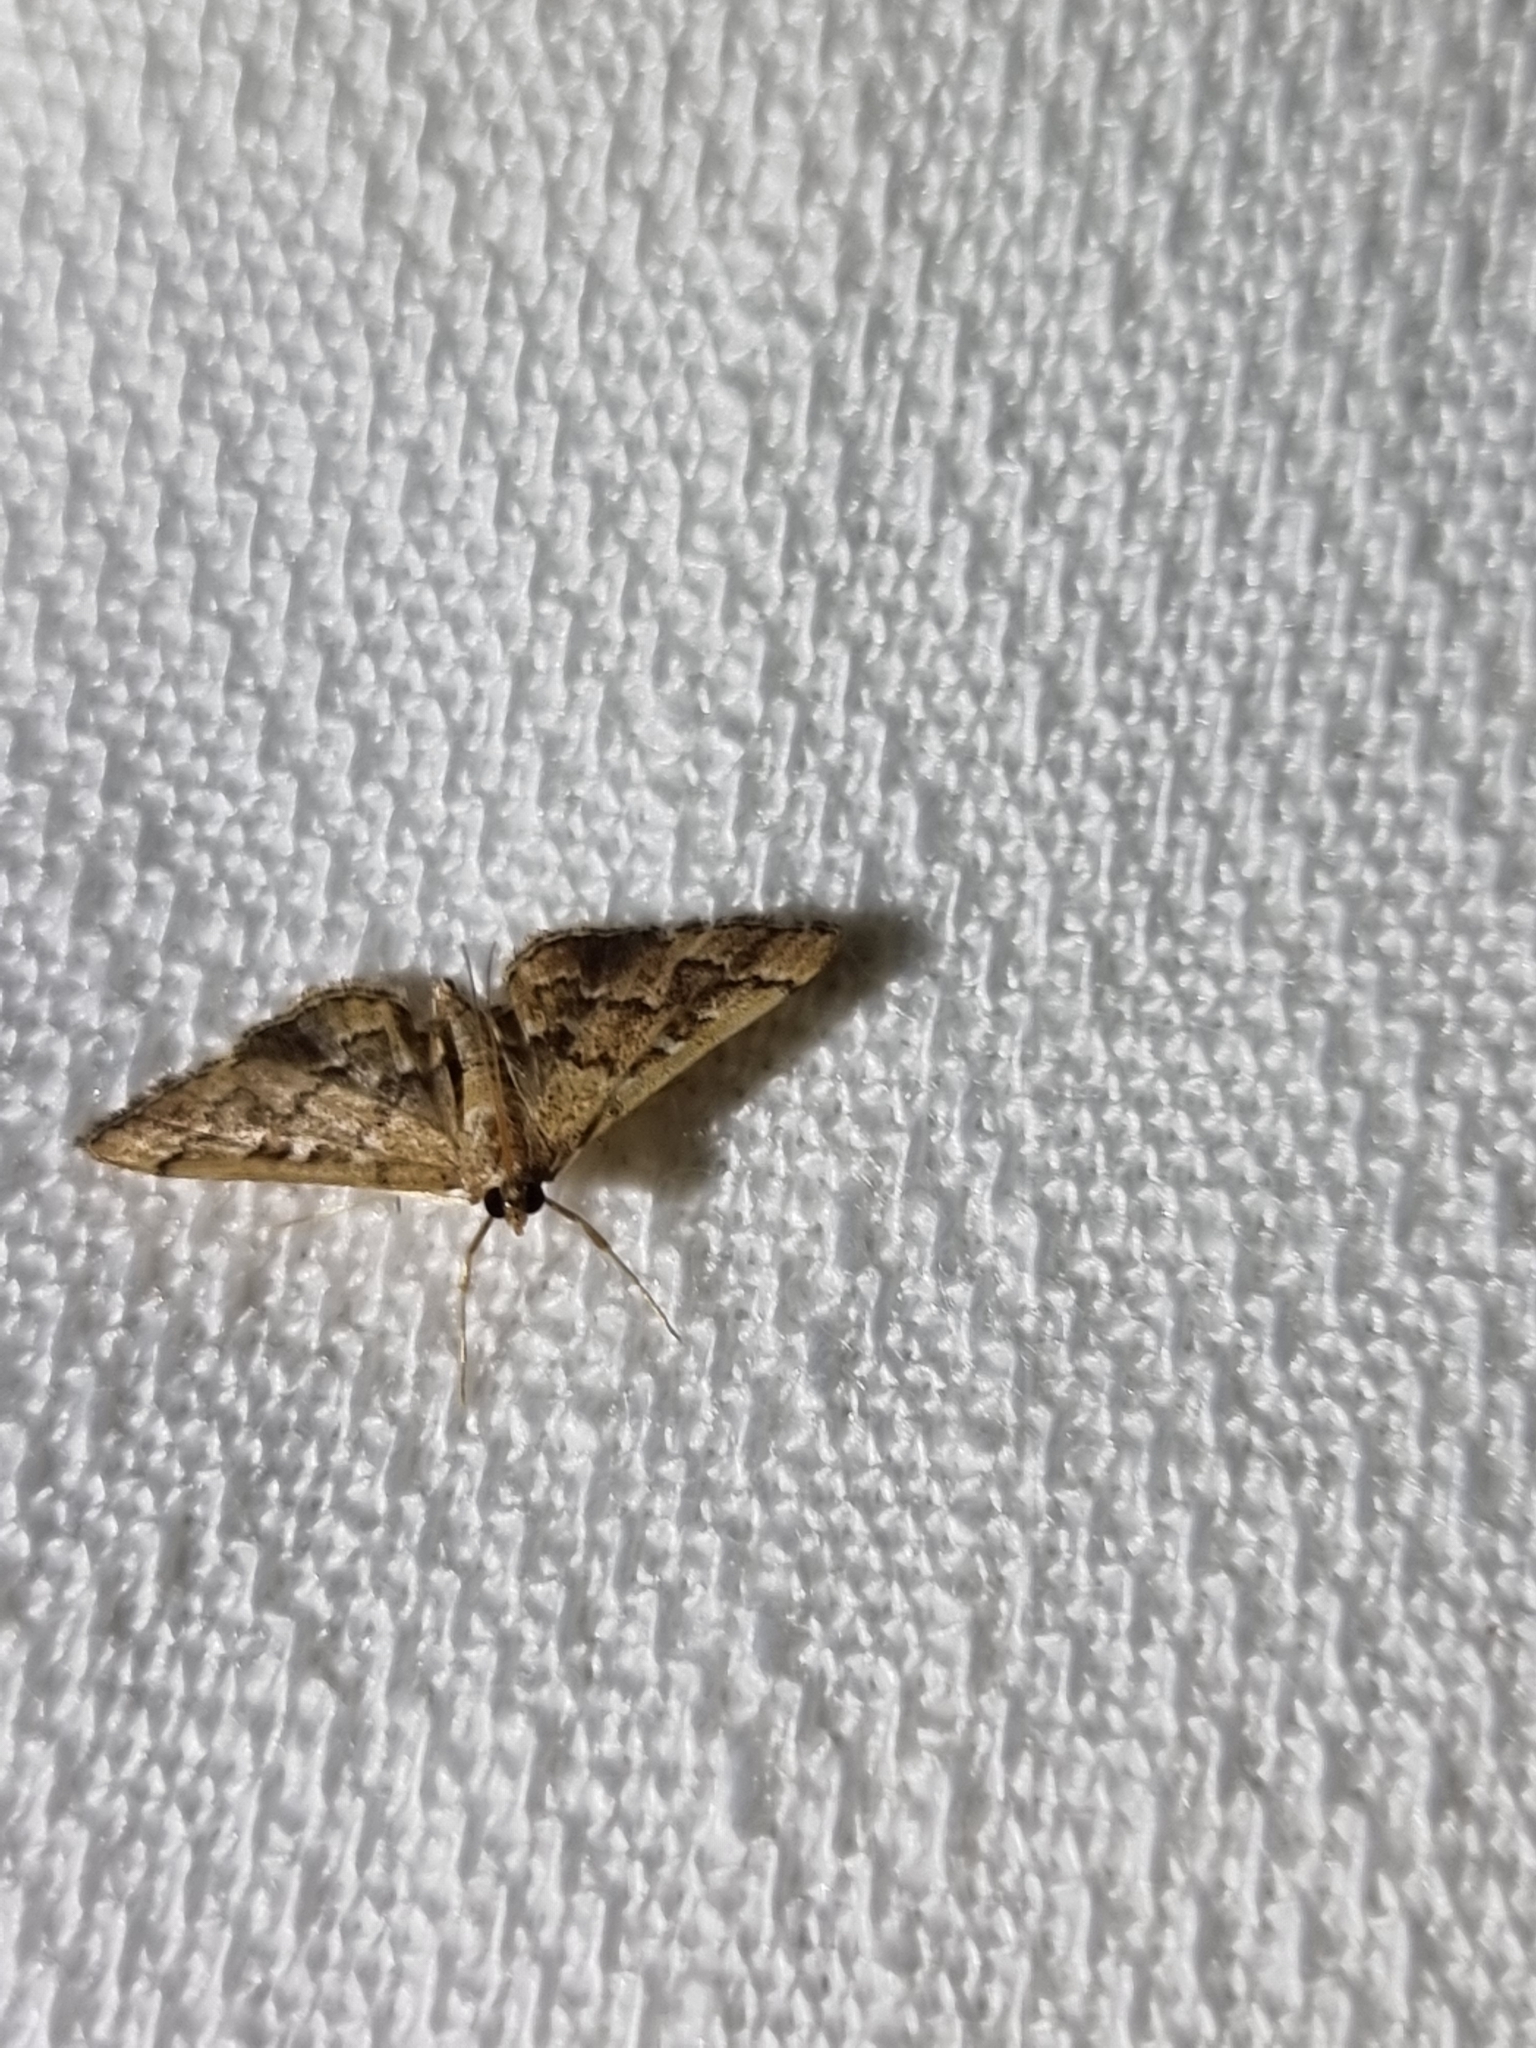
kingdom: Animalia
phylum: Arthropoda
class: Insecta
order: Lepidoptera
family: Crambidae
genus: Nacoleia
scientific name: Nacoleia rhoeoalis
